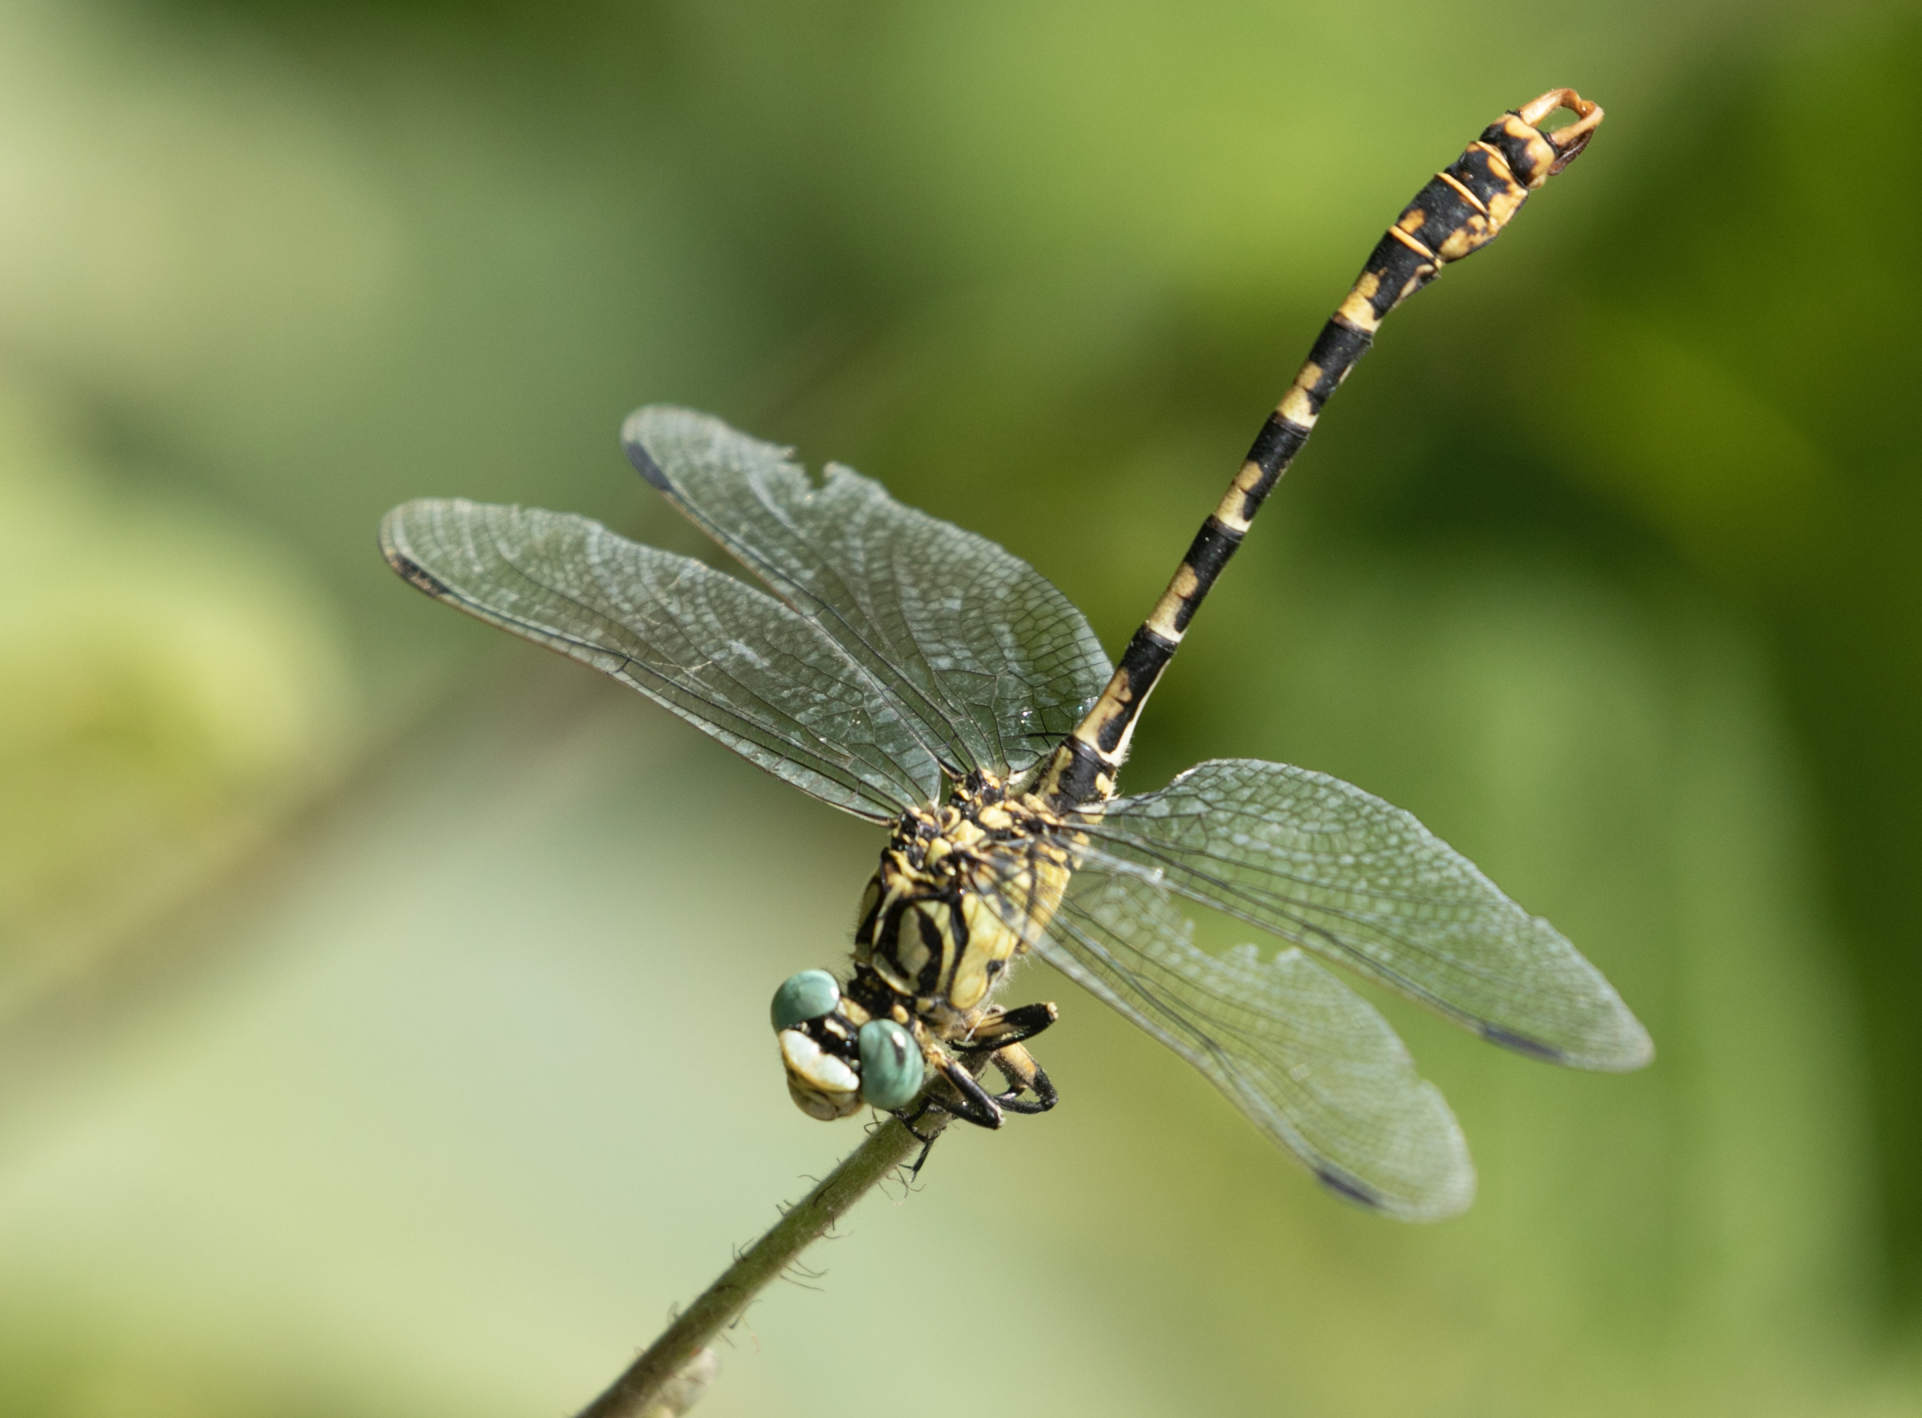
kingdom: Animalia
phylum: Arthropoda
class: Insecta
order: Odonata
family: Gomphidae
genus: Onychogomphus
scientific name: Onychogomphus forcipatus
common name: Small pincertail
